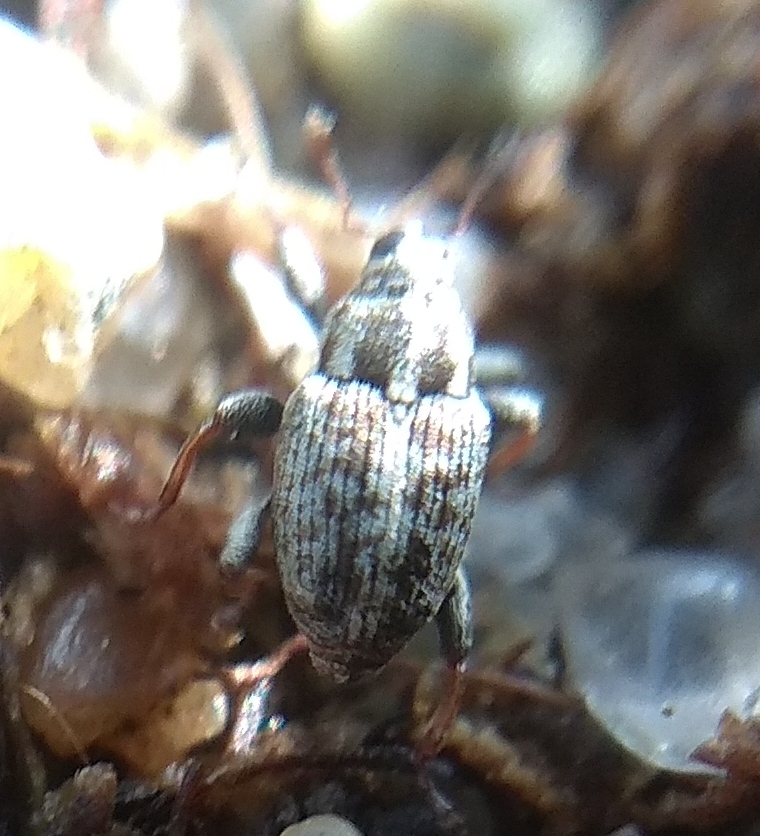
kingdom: Animalia
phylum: Arthropoda
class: Insecta
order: Coleoptera
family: Curculionidae
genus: Poecilma
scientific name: Poecilma
